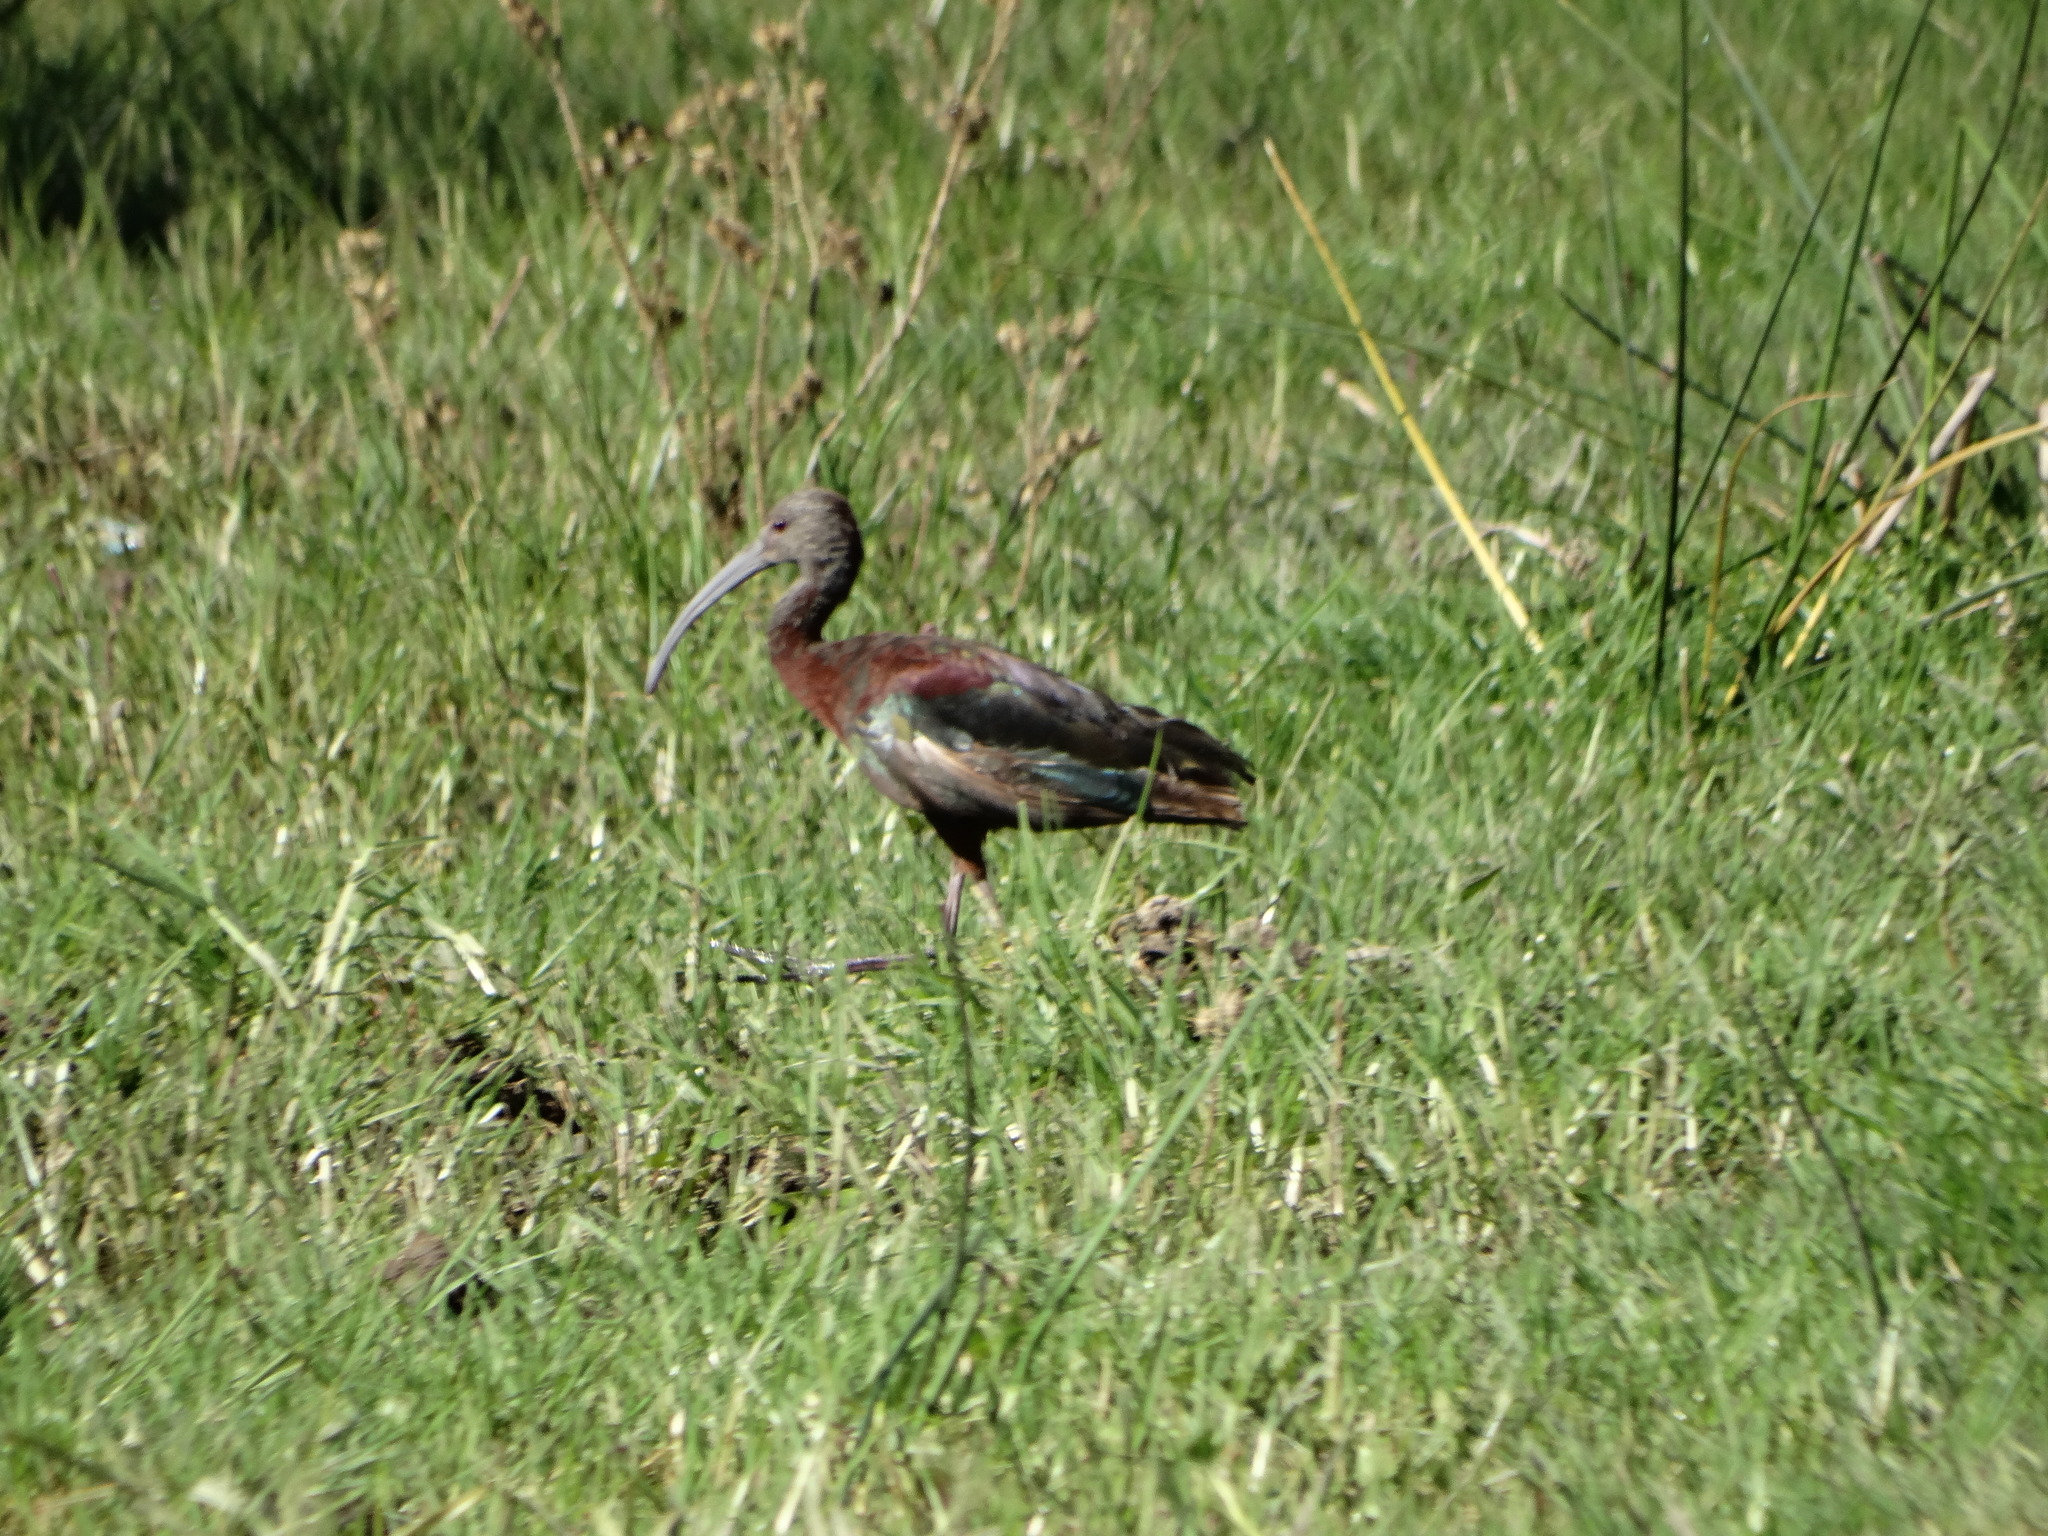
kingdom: Animalia
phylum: Chordata
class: Aves
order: Pelecaniformes
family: Threskiornithidae
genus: Plegadis
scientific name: Plegadis chihi
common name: White-faced ibis
